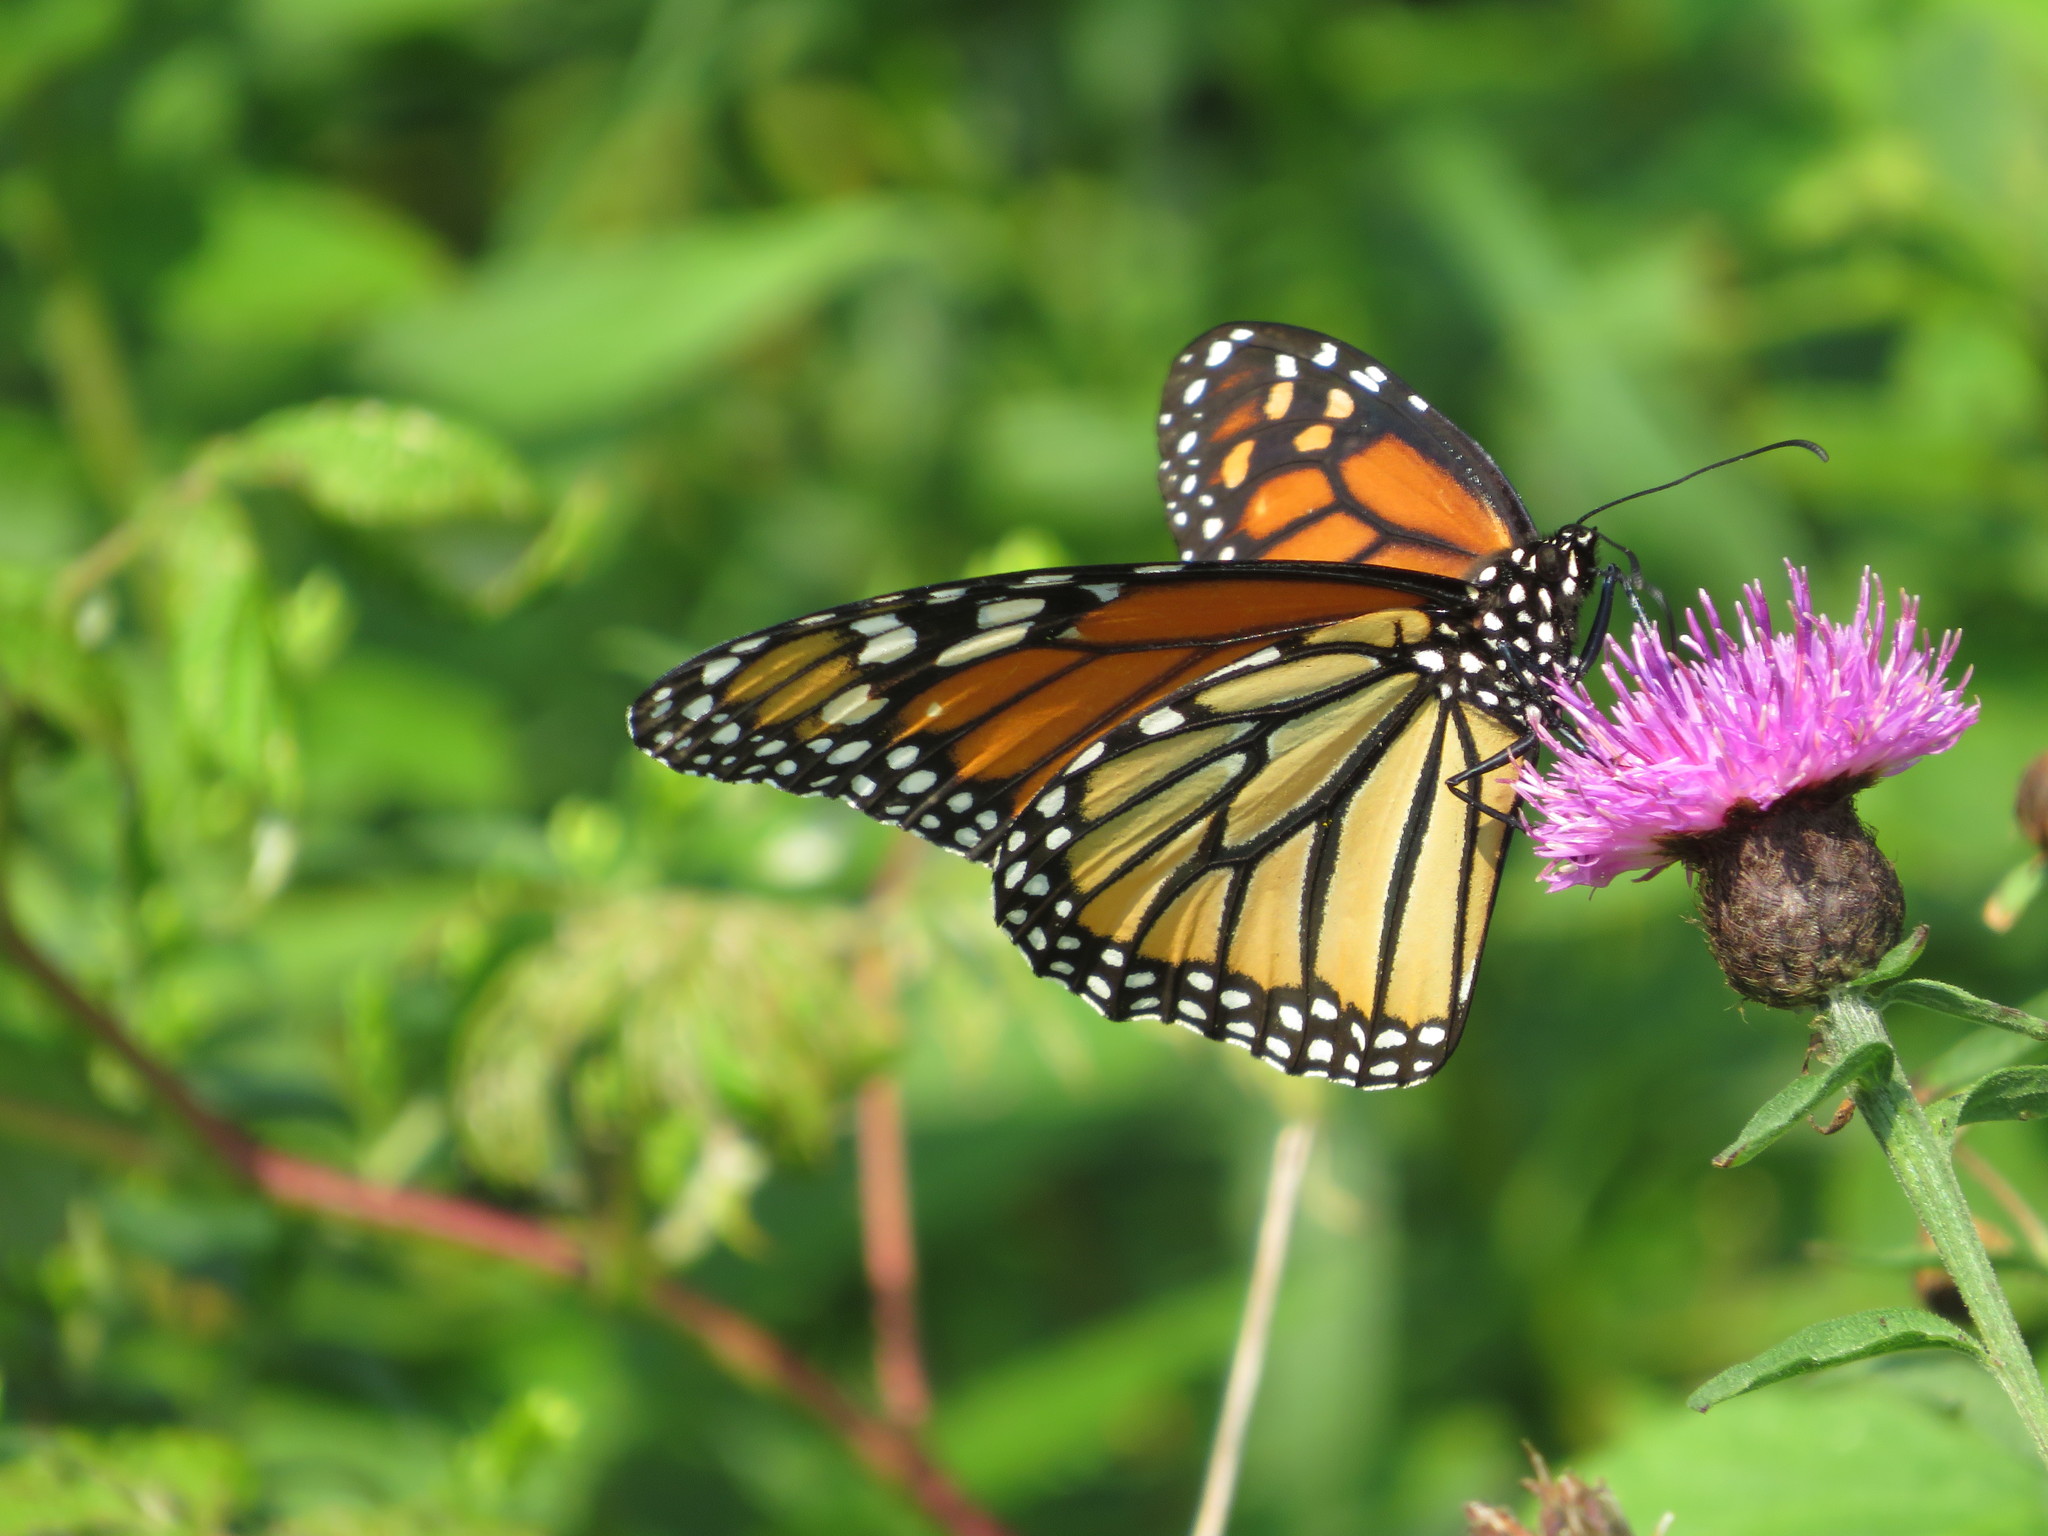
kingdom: Animalia
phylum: Arthropoda
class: Insecta
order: Lepidoptera
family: Nymphalidae
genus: Danaus
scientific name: Danaus plexippus
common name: Monarch
